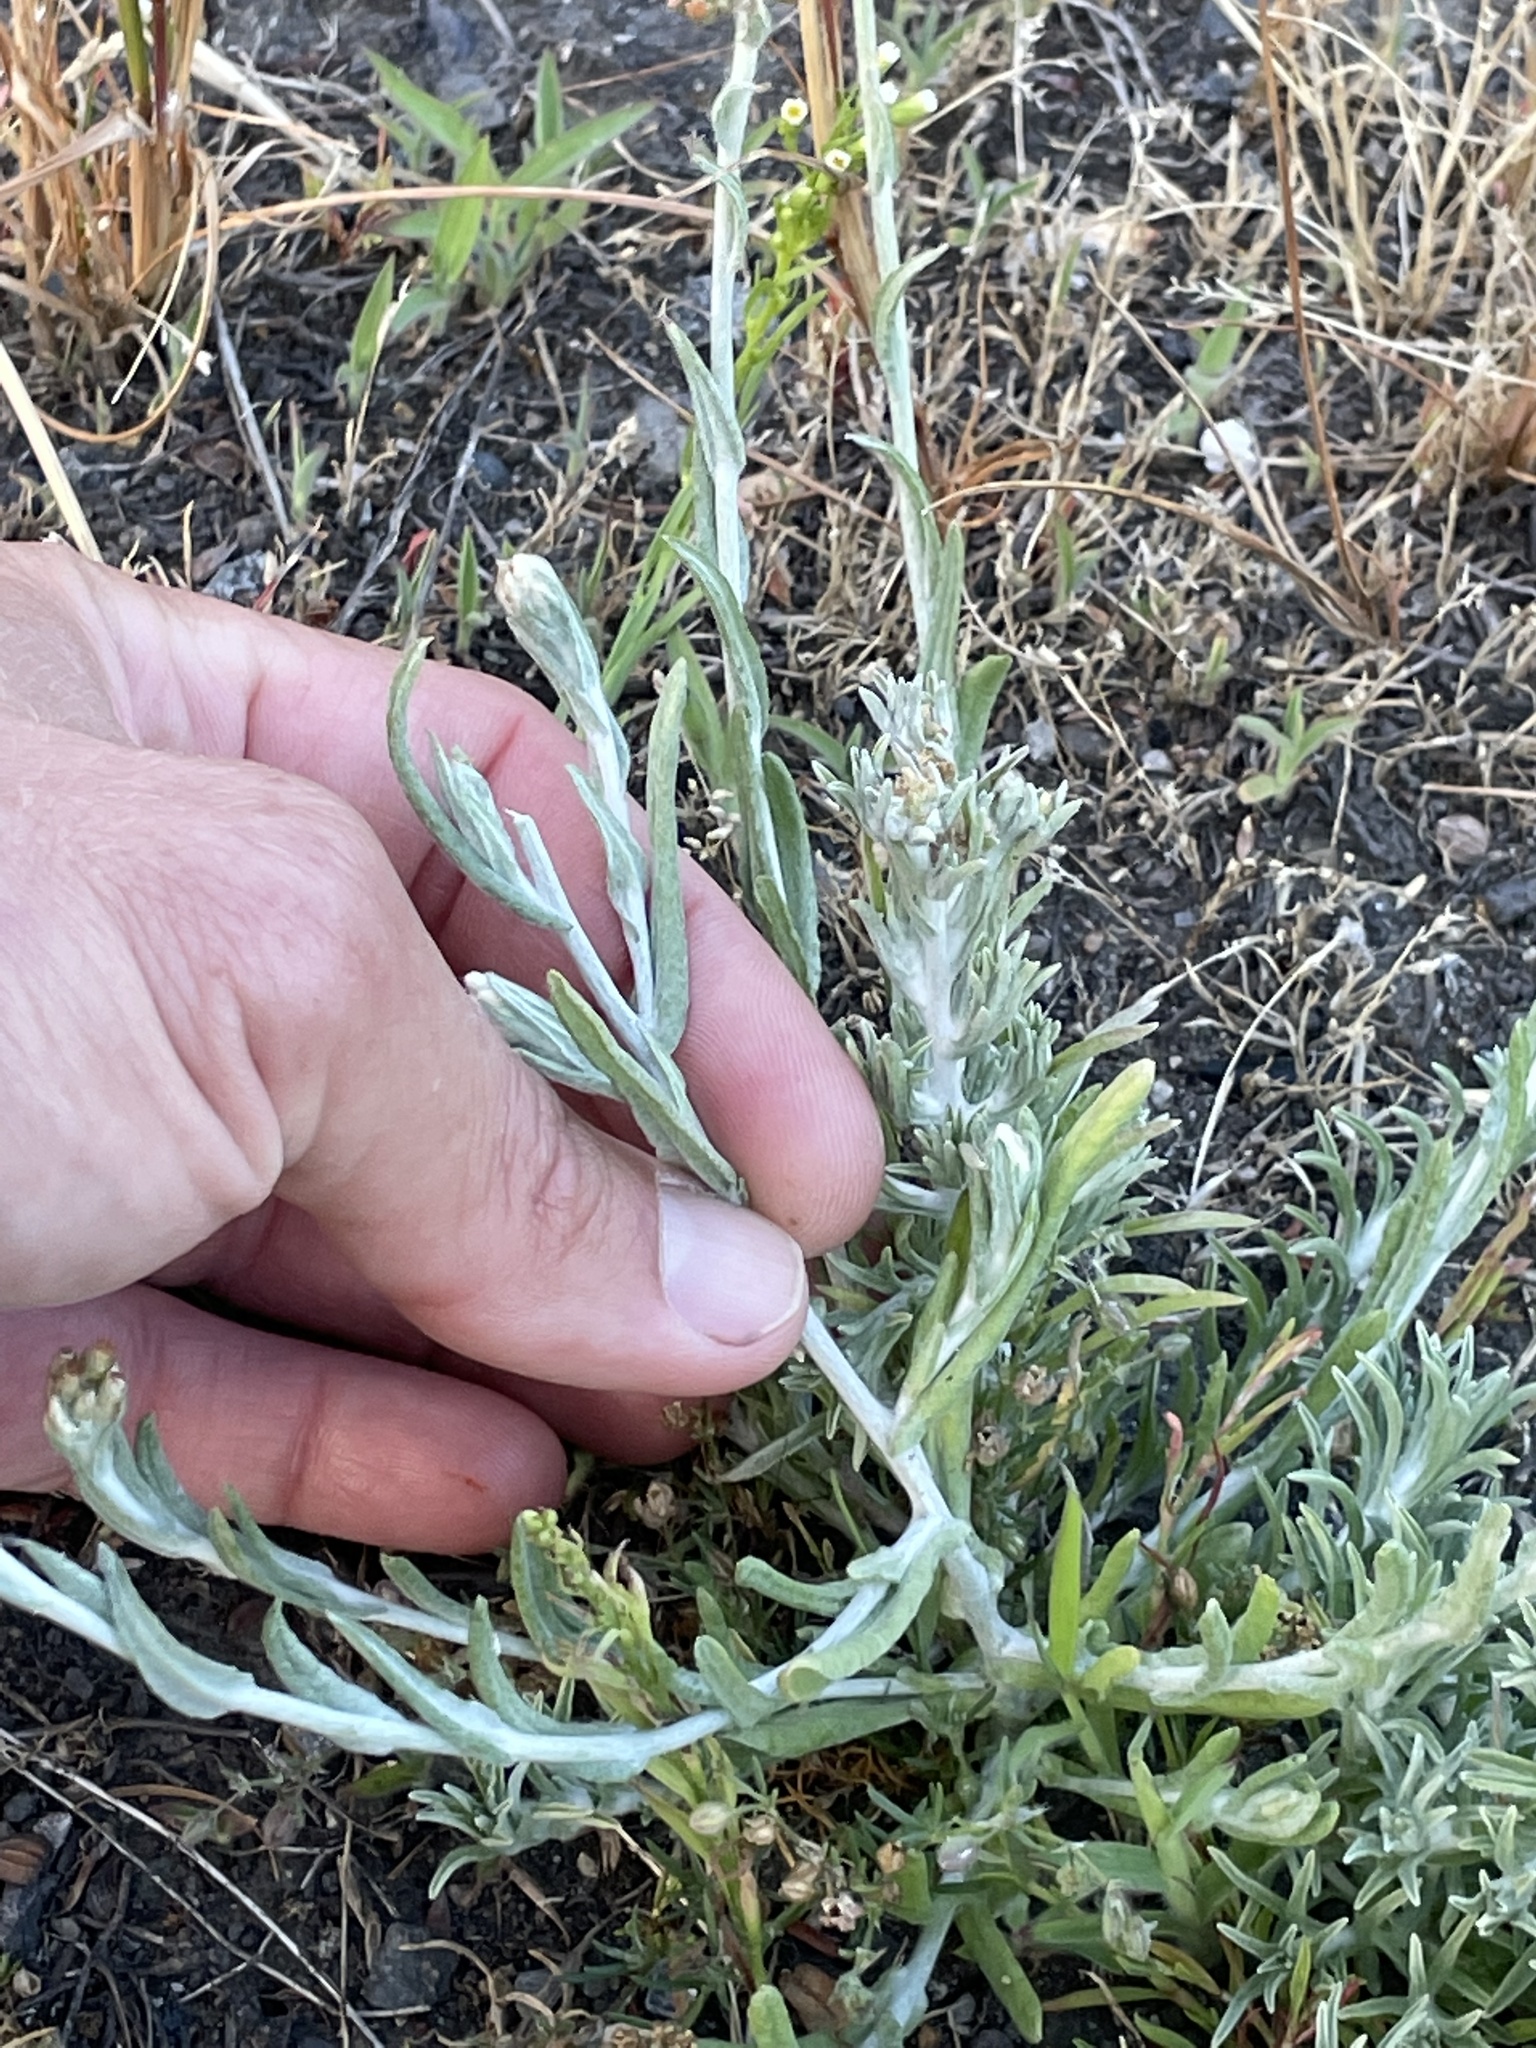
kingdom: Plantae
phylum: Tracheophyta
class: Magnoliopsida
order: Asterales
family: Asteraceae
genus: Helichrysum
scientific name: Helichrysum luteoalbum
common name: Daisy
